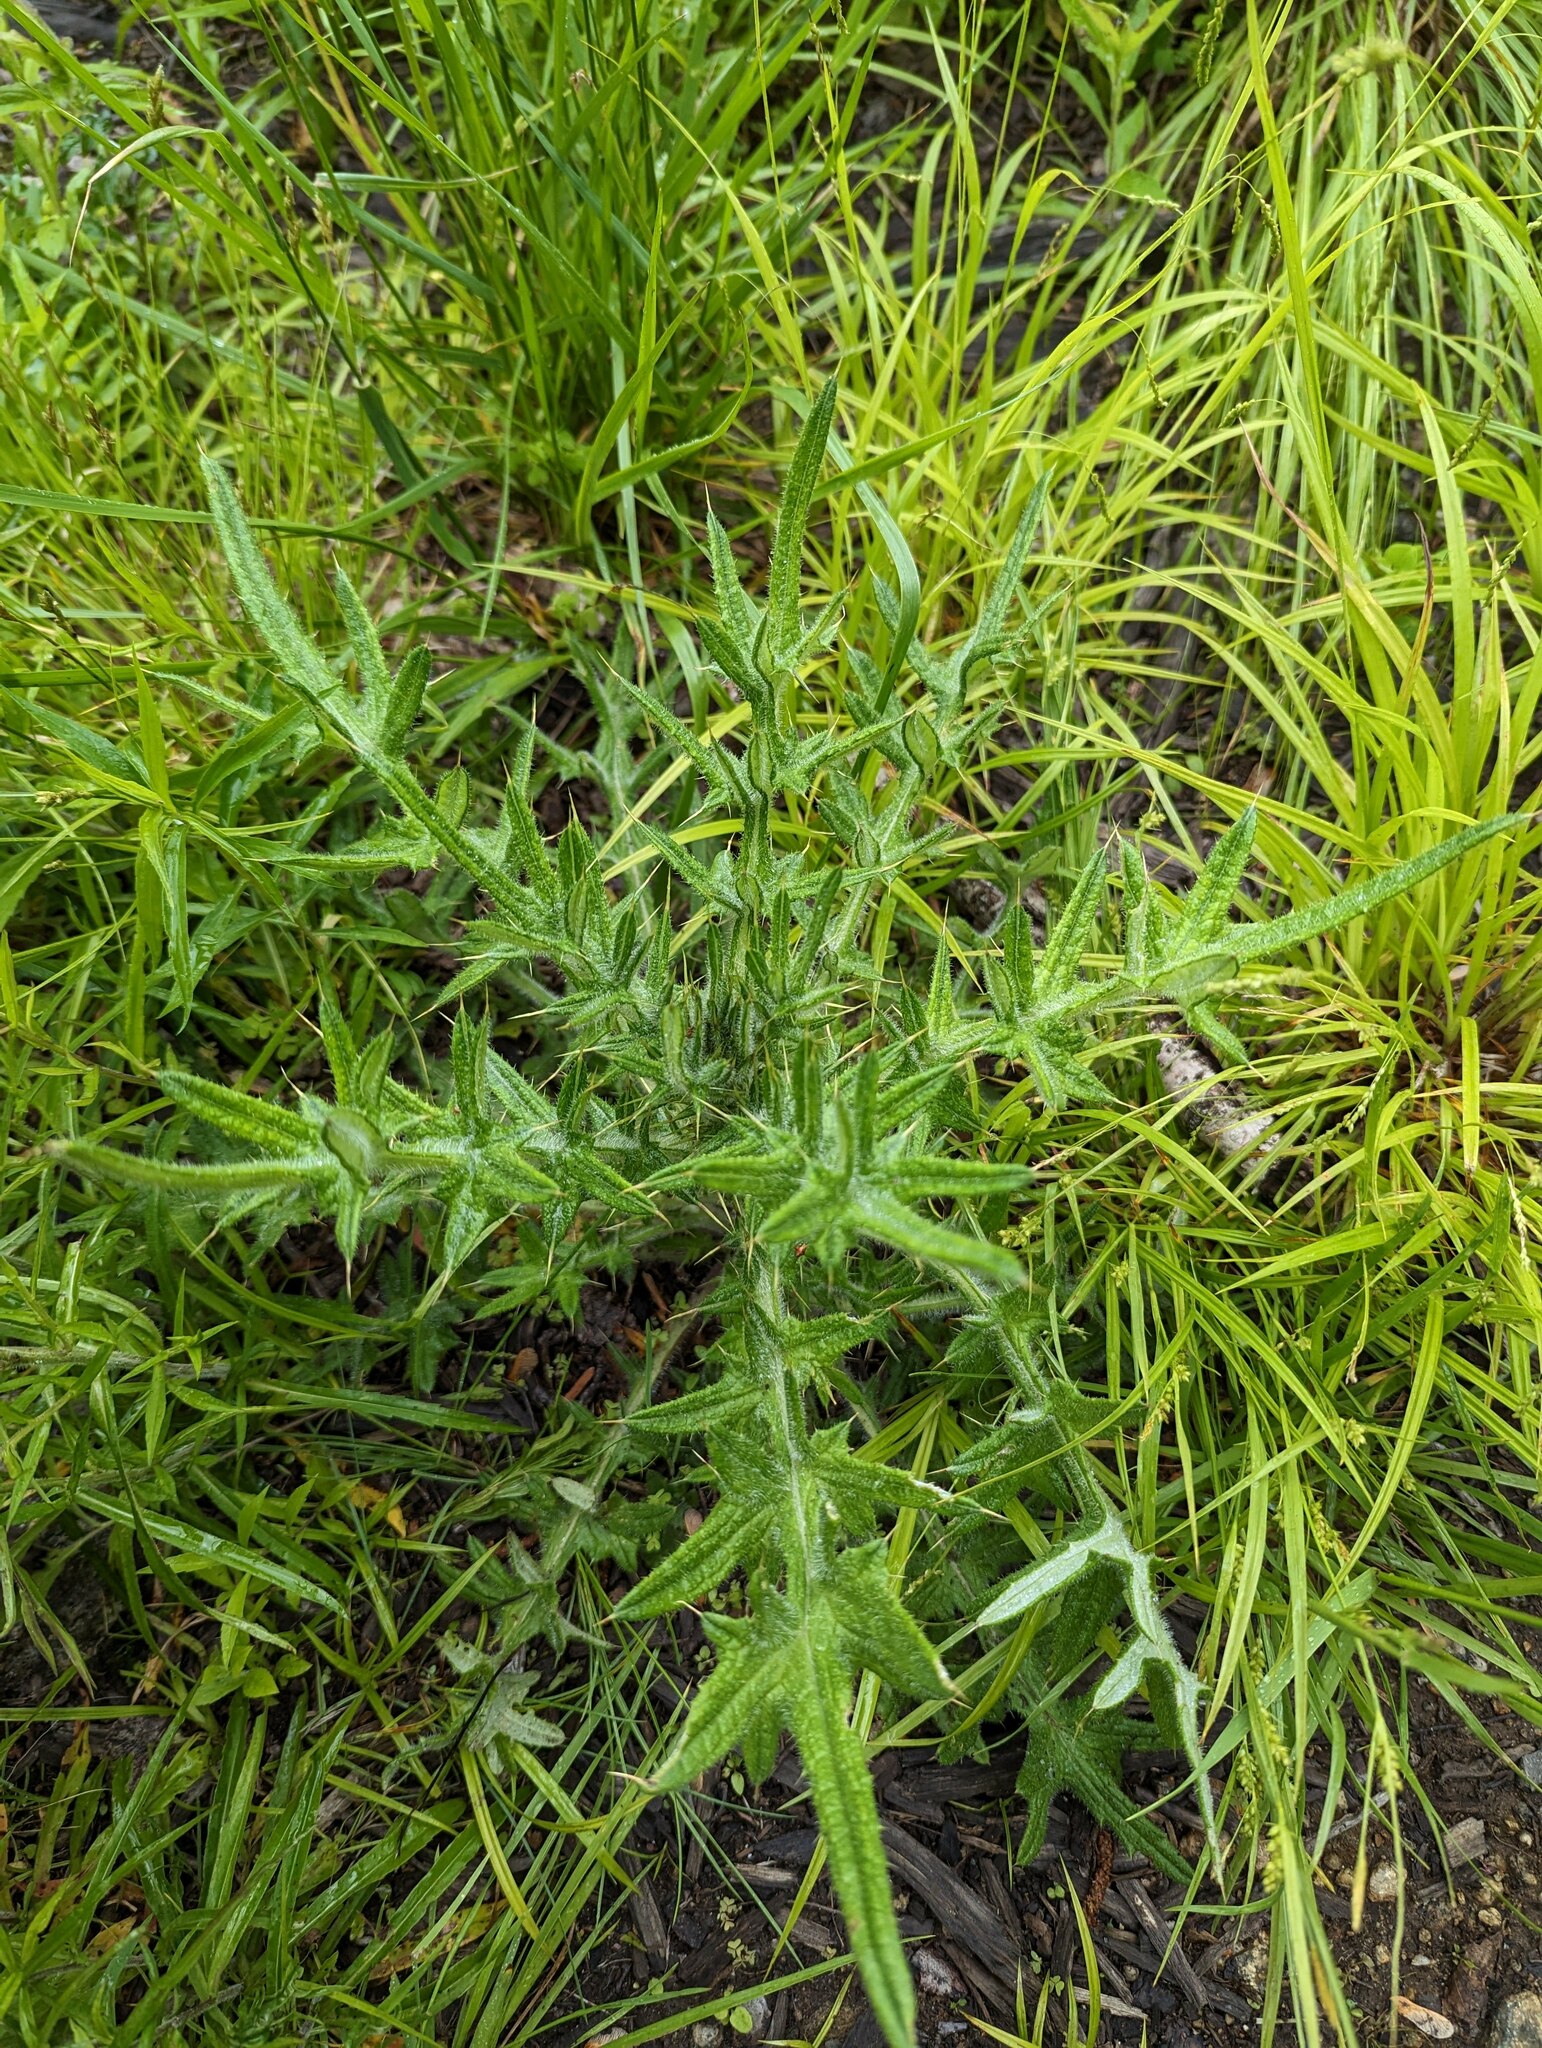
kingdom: Plantae
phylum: Tracheophyta
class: Magnoliopsida
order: Asterales
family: Asteraceae
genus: Cirsium
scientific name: Cirsium vulgare
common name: Bull thistle
